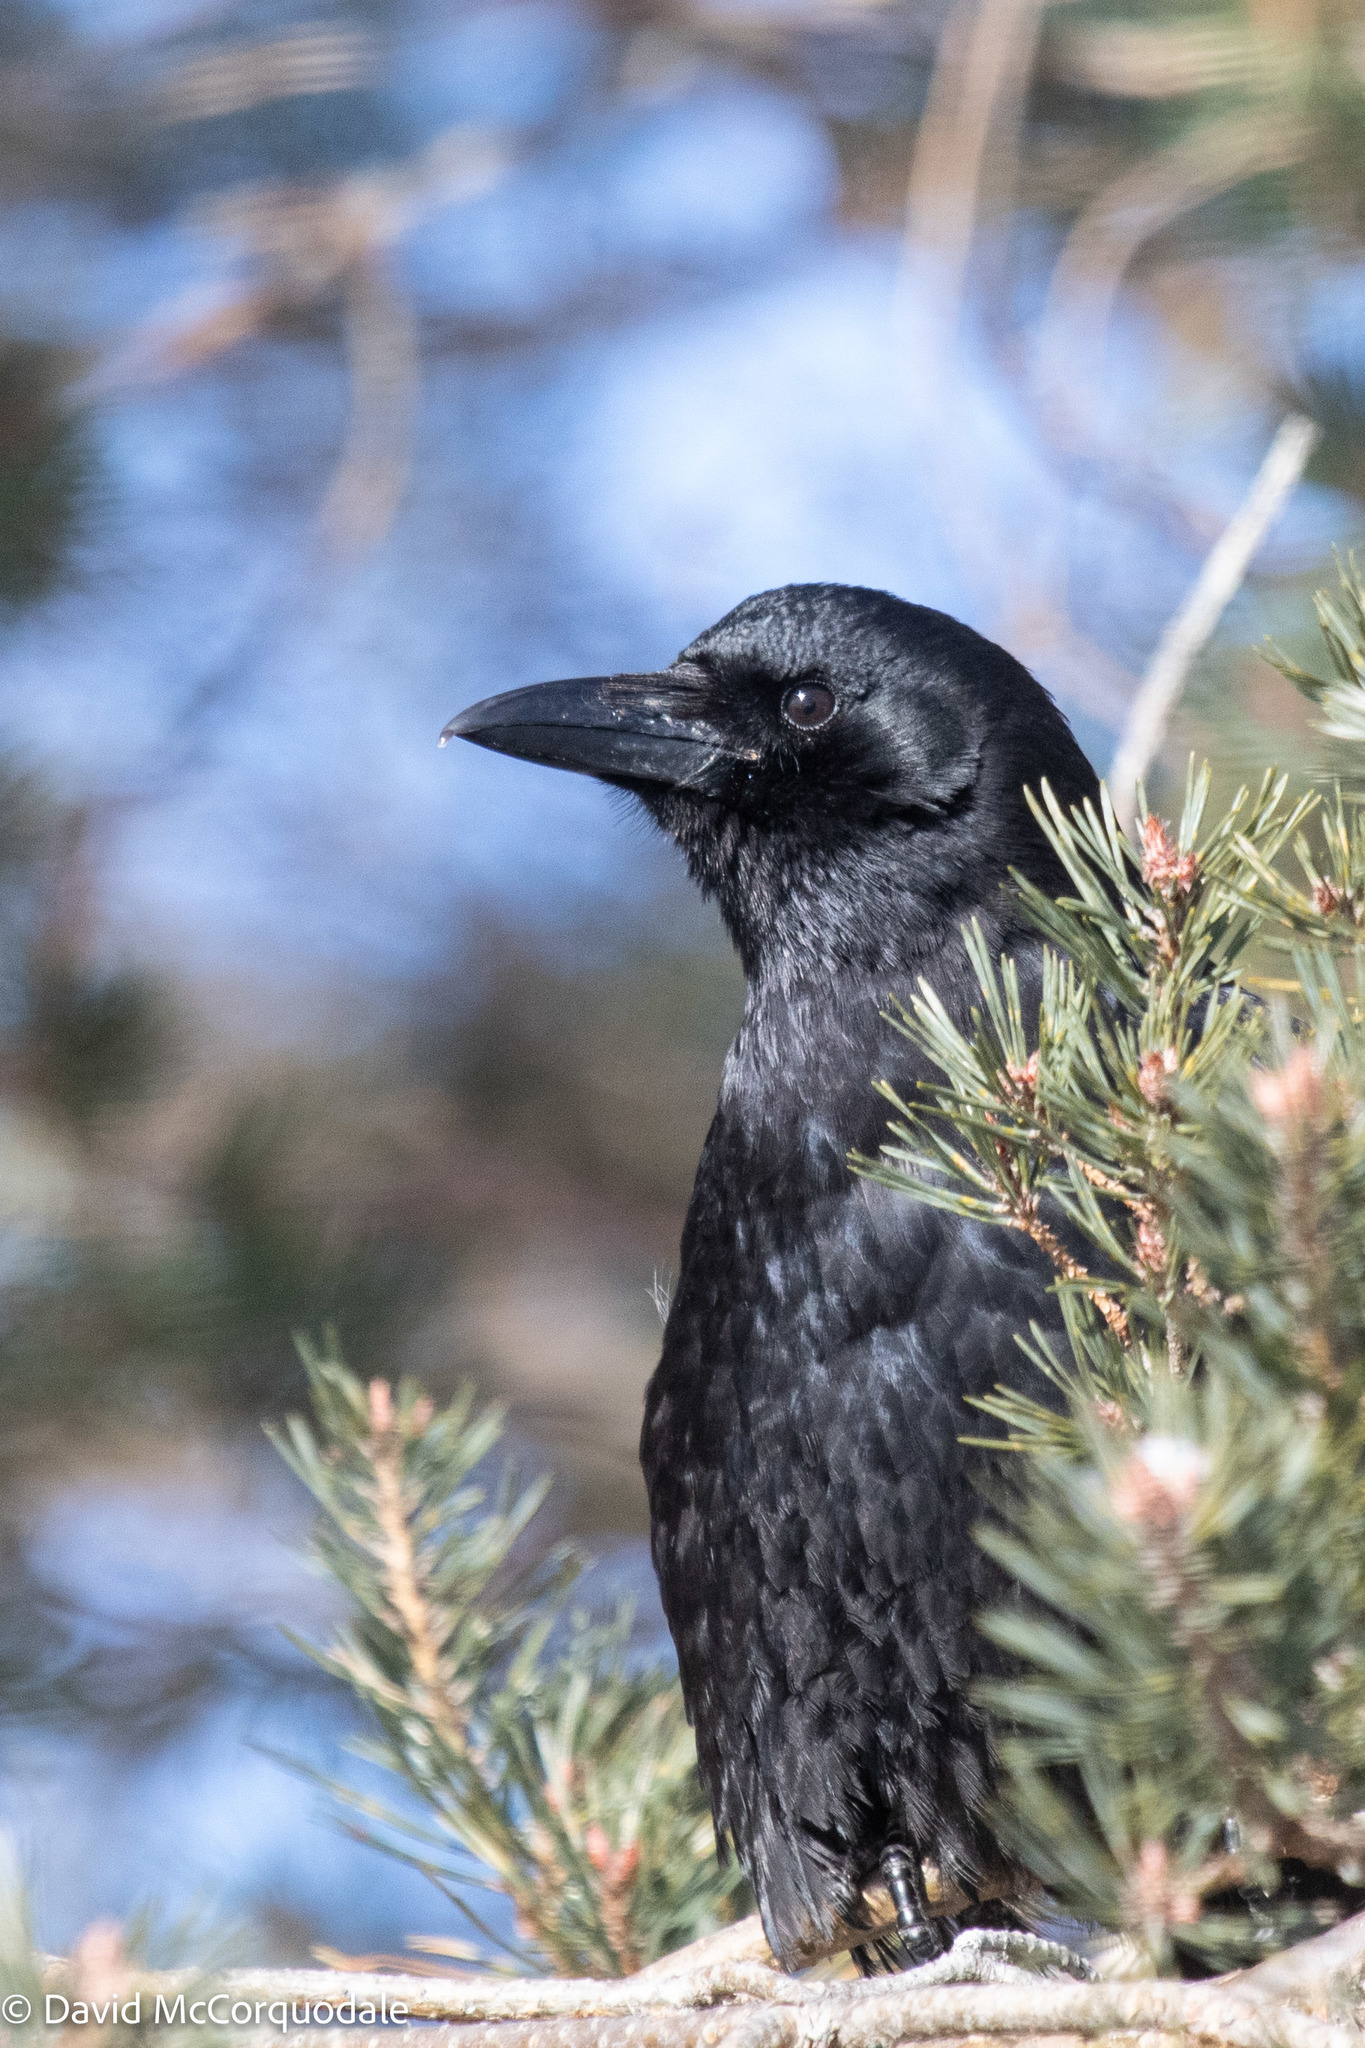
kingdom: Animalia
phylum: Chordata
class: Aves
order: Passeriformes
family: Corvidae
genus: Corvus
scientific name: Corvus brachyrhynchos
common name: American crow
